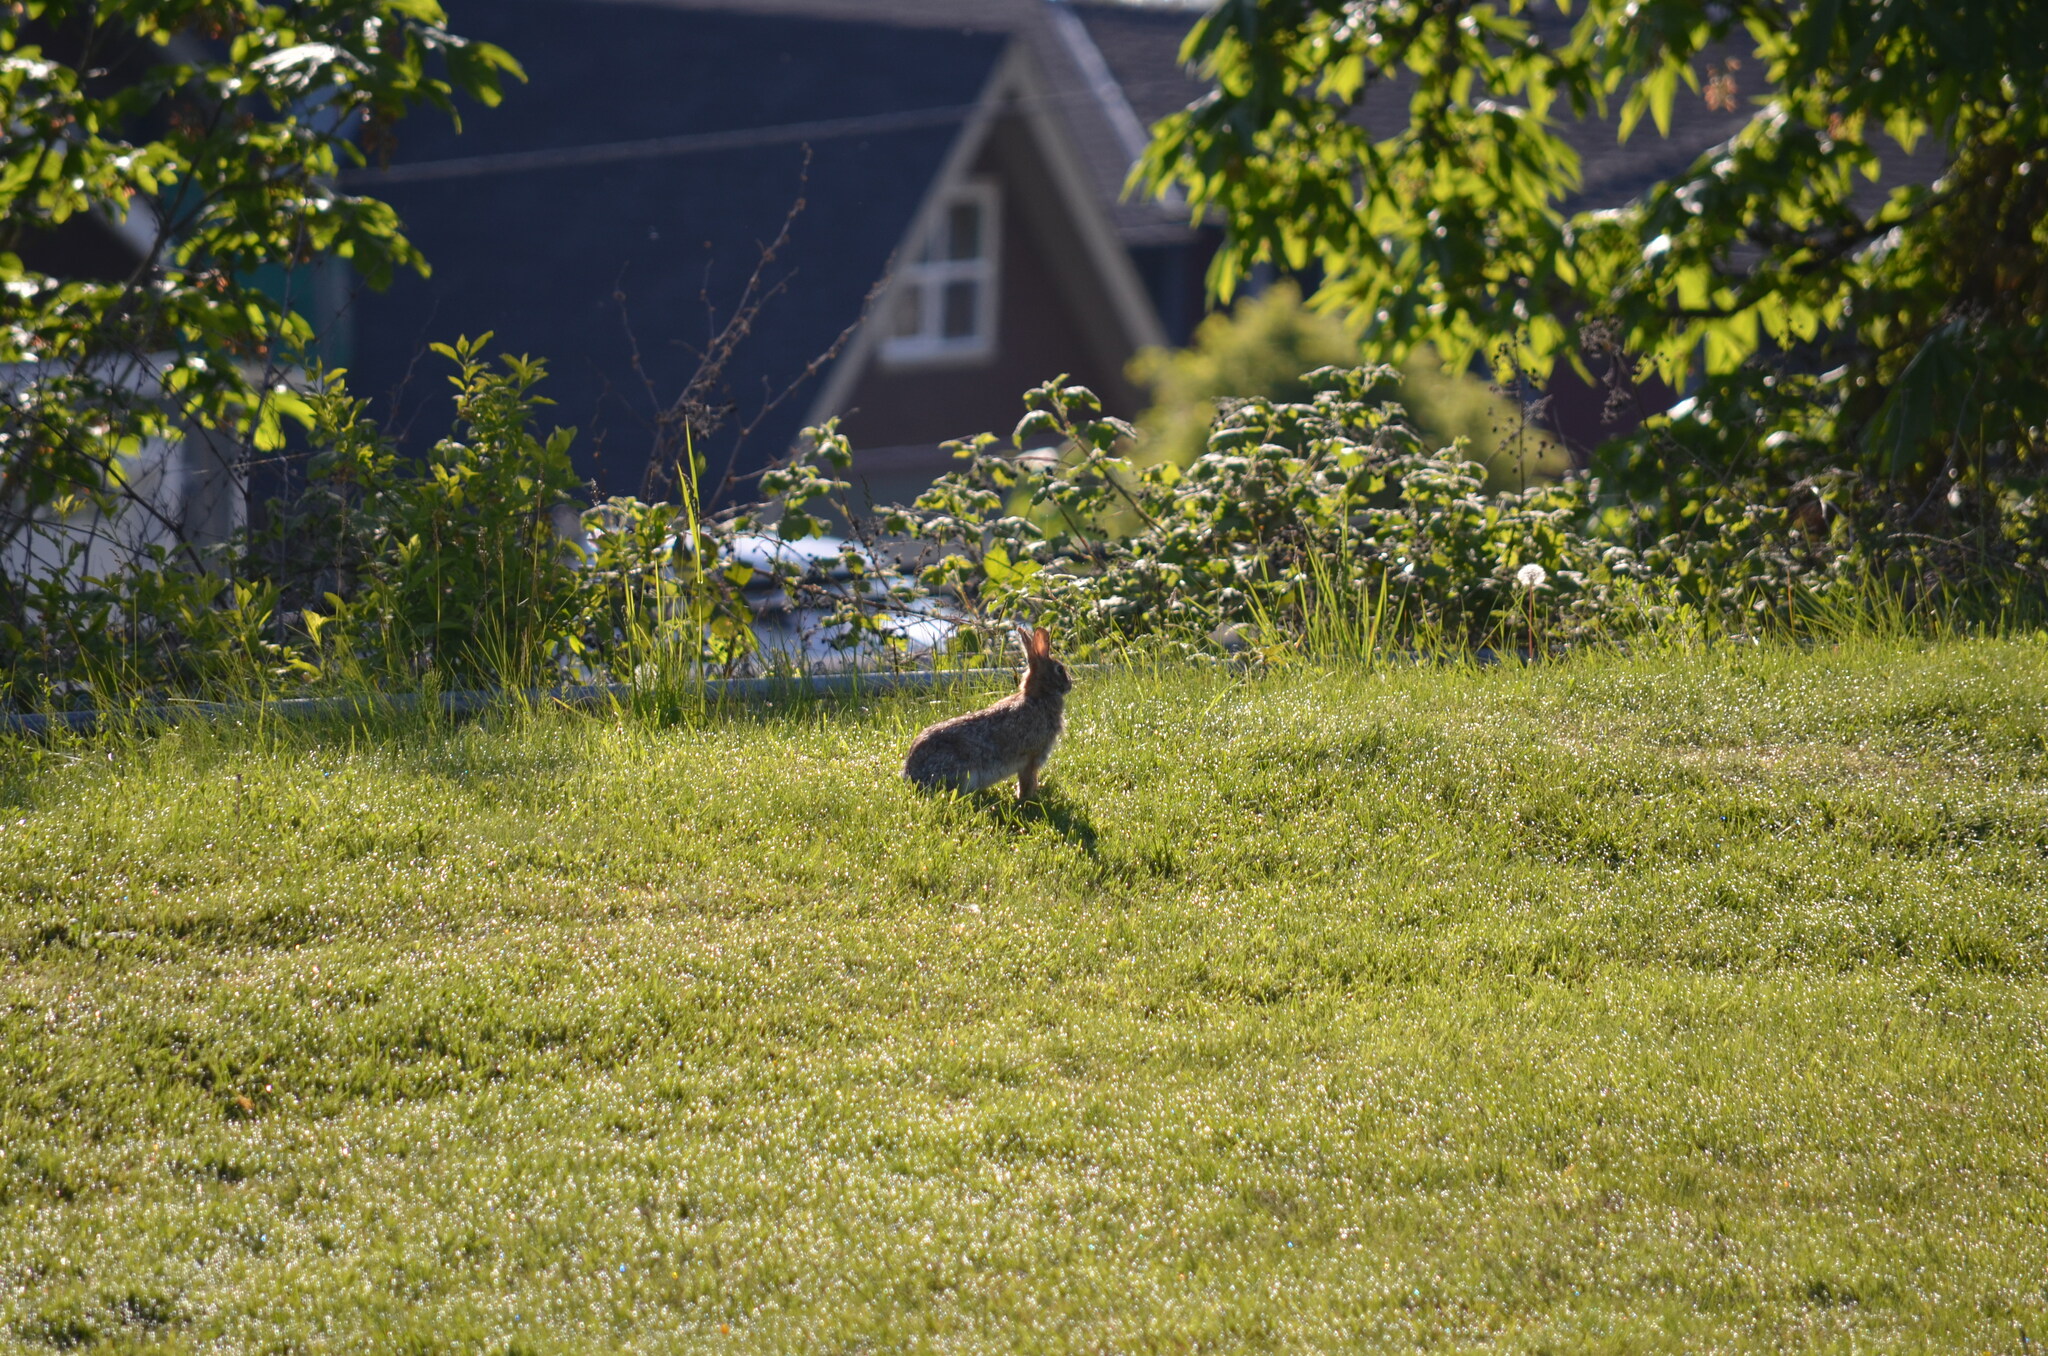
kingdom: Animalia
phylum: Chordata
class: Mammalia
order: Lagomorpha
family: Leporidae
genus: Sylvilagus
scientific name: Sylvilagus floridanus
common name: Eastern cottontail
